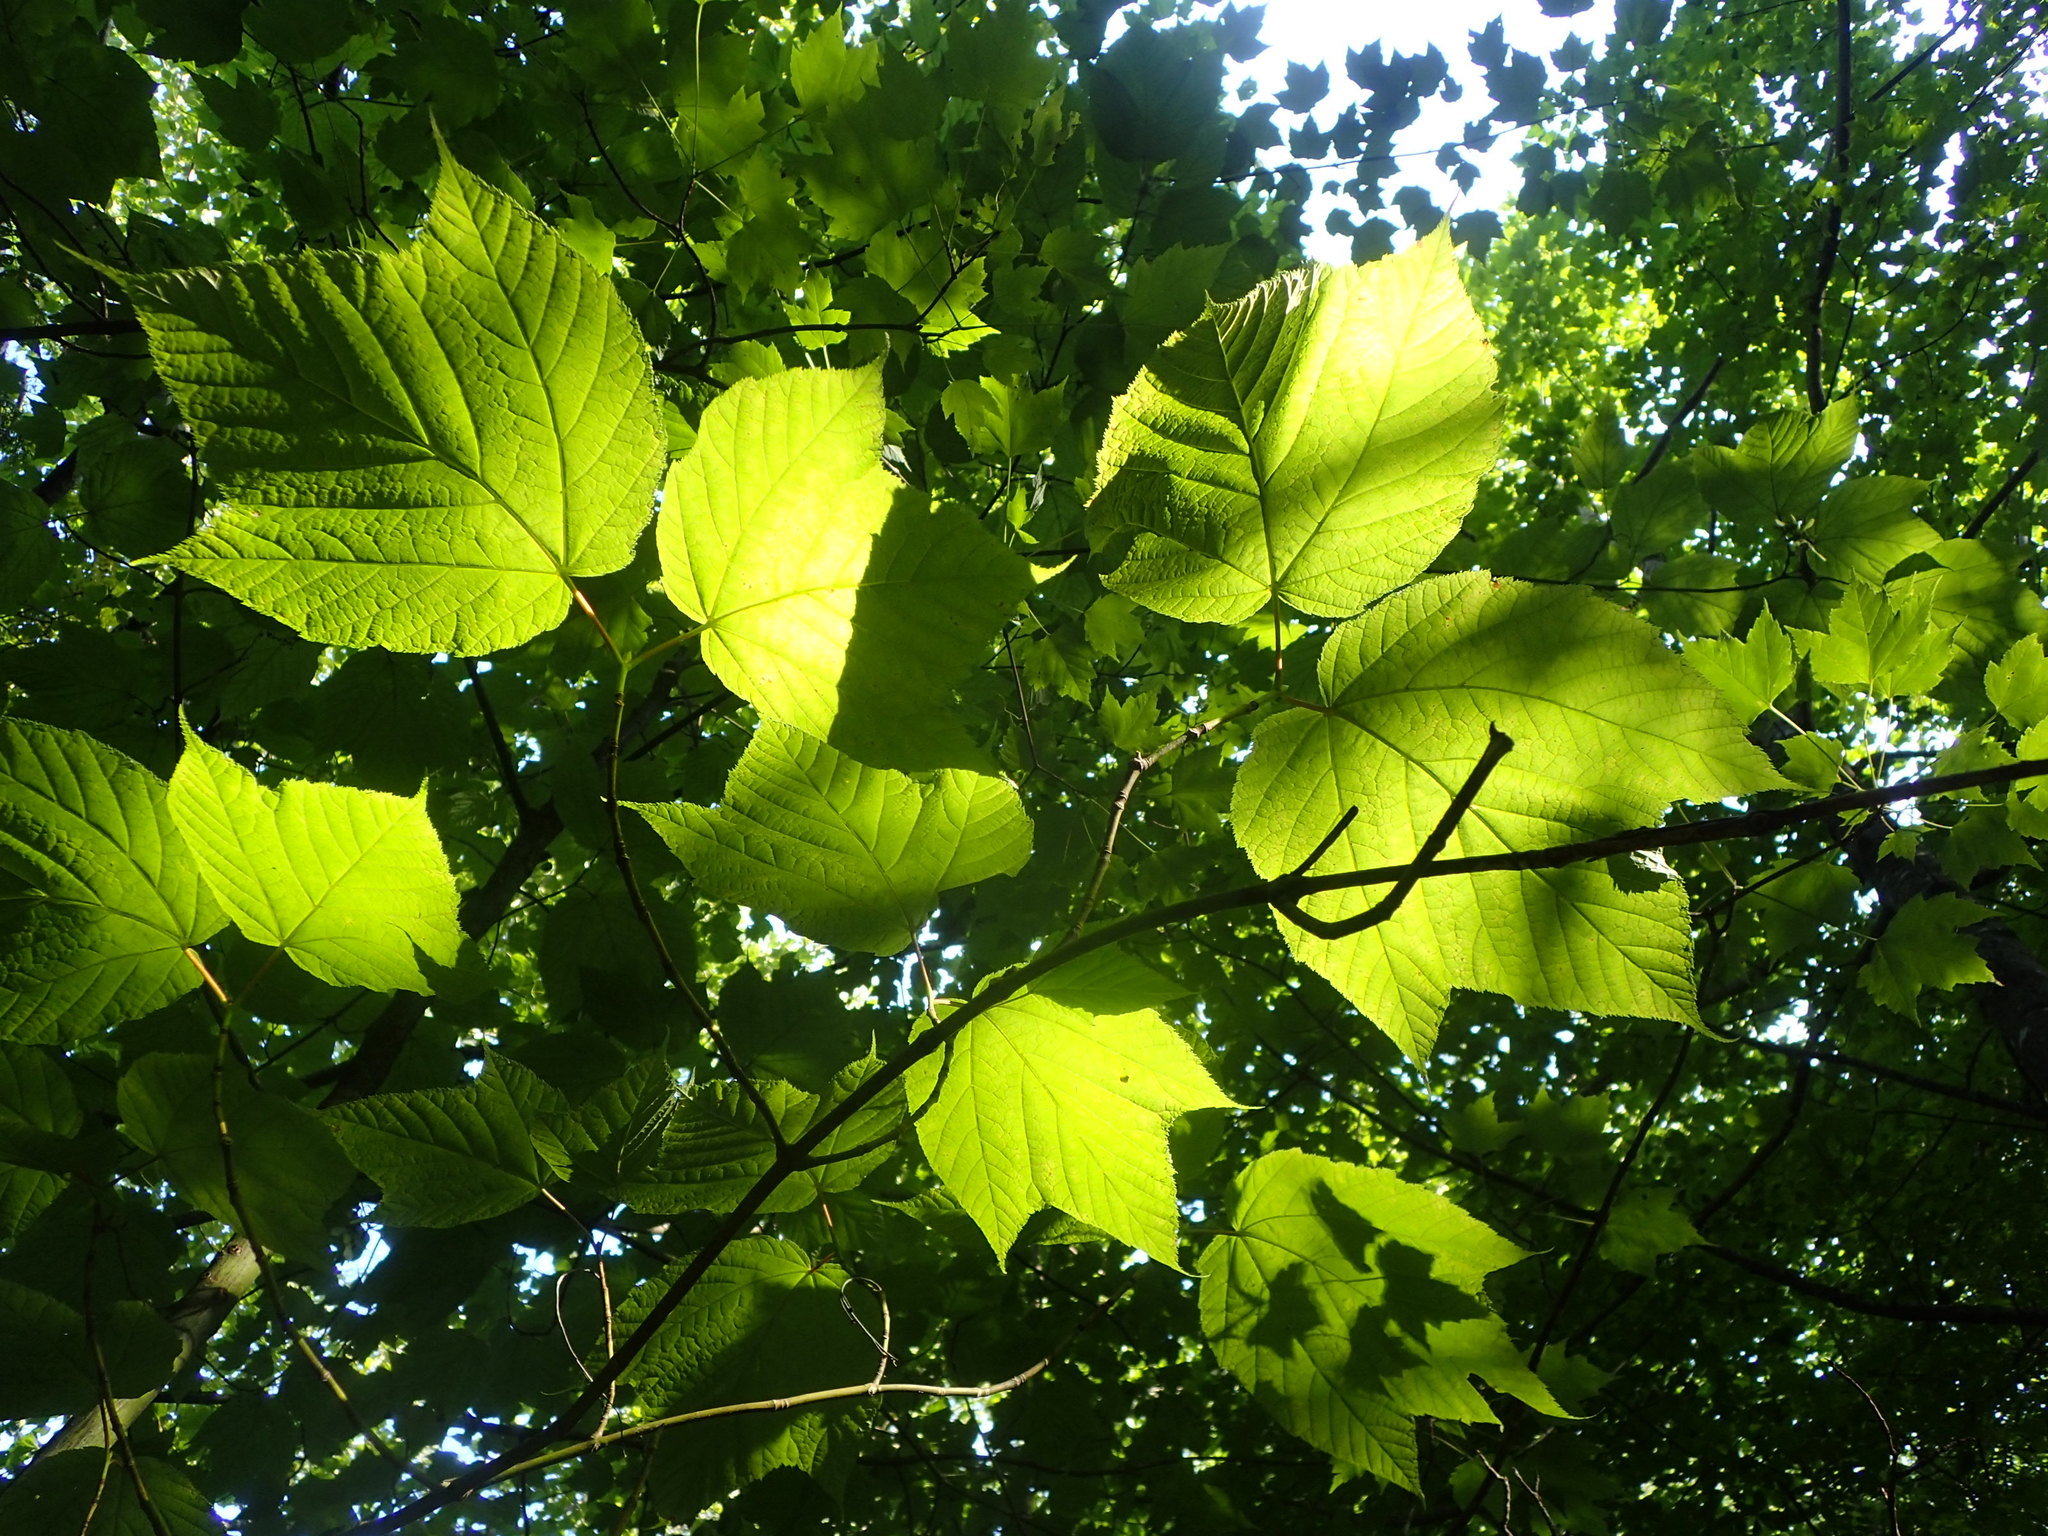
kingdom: Plantae
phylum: Tracheophyta
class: Magnoliopsida
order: Sapindales
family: Sapindaceae
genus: Acer
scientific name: Acer pensylvanicum
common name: Moosewood
